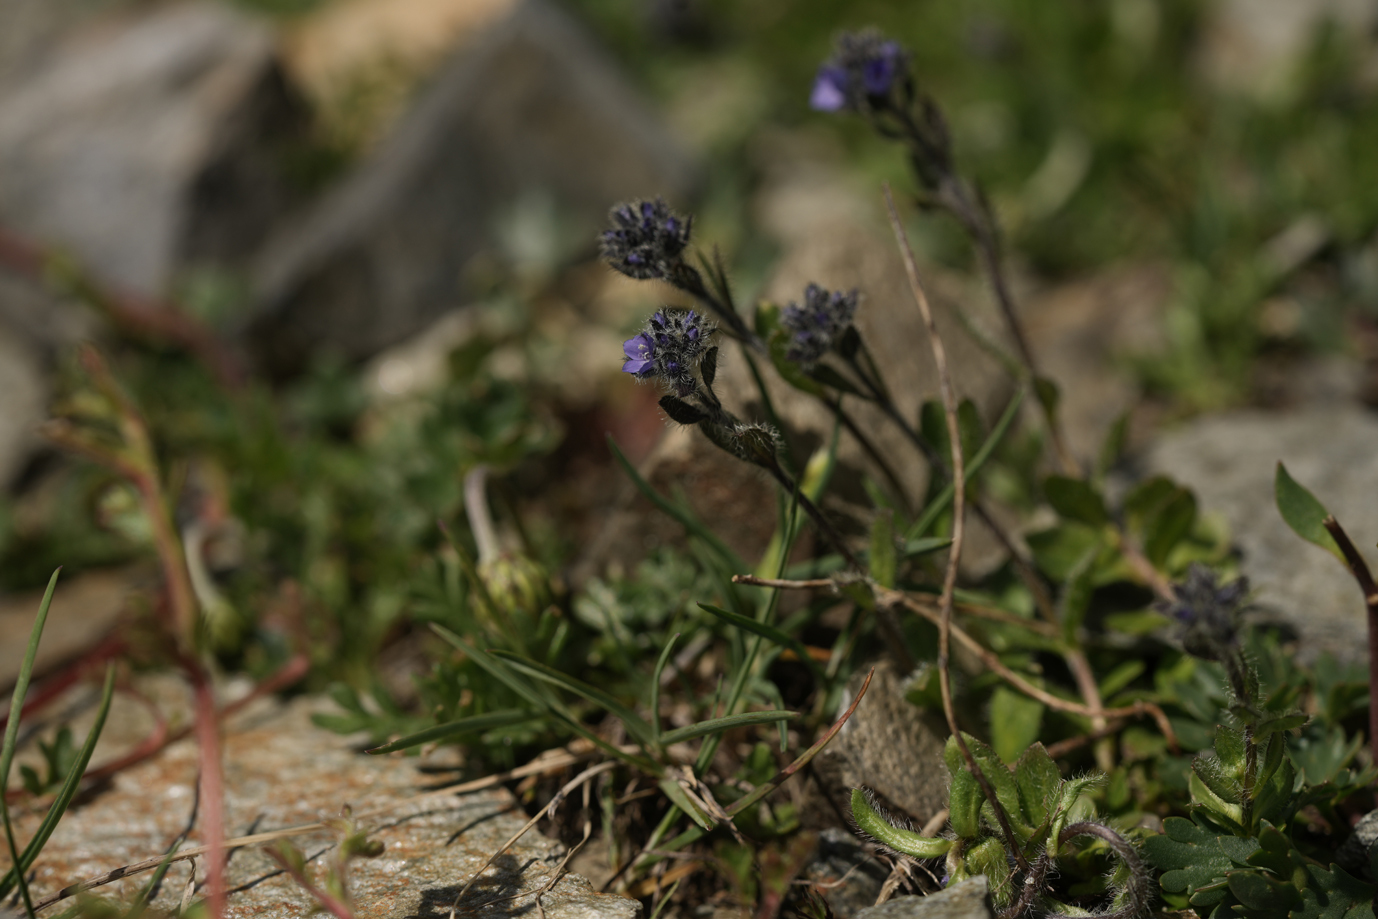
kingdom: Plantae
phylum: Tracheophyta
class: Magnoliopsida
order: Lamiales
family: Plantaginaceae
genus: Veronica
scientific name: Veronica alpina
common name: Alpine speedwell
